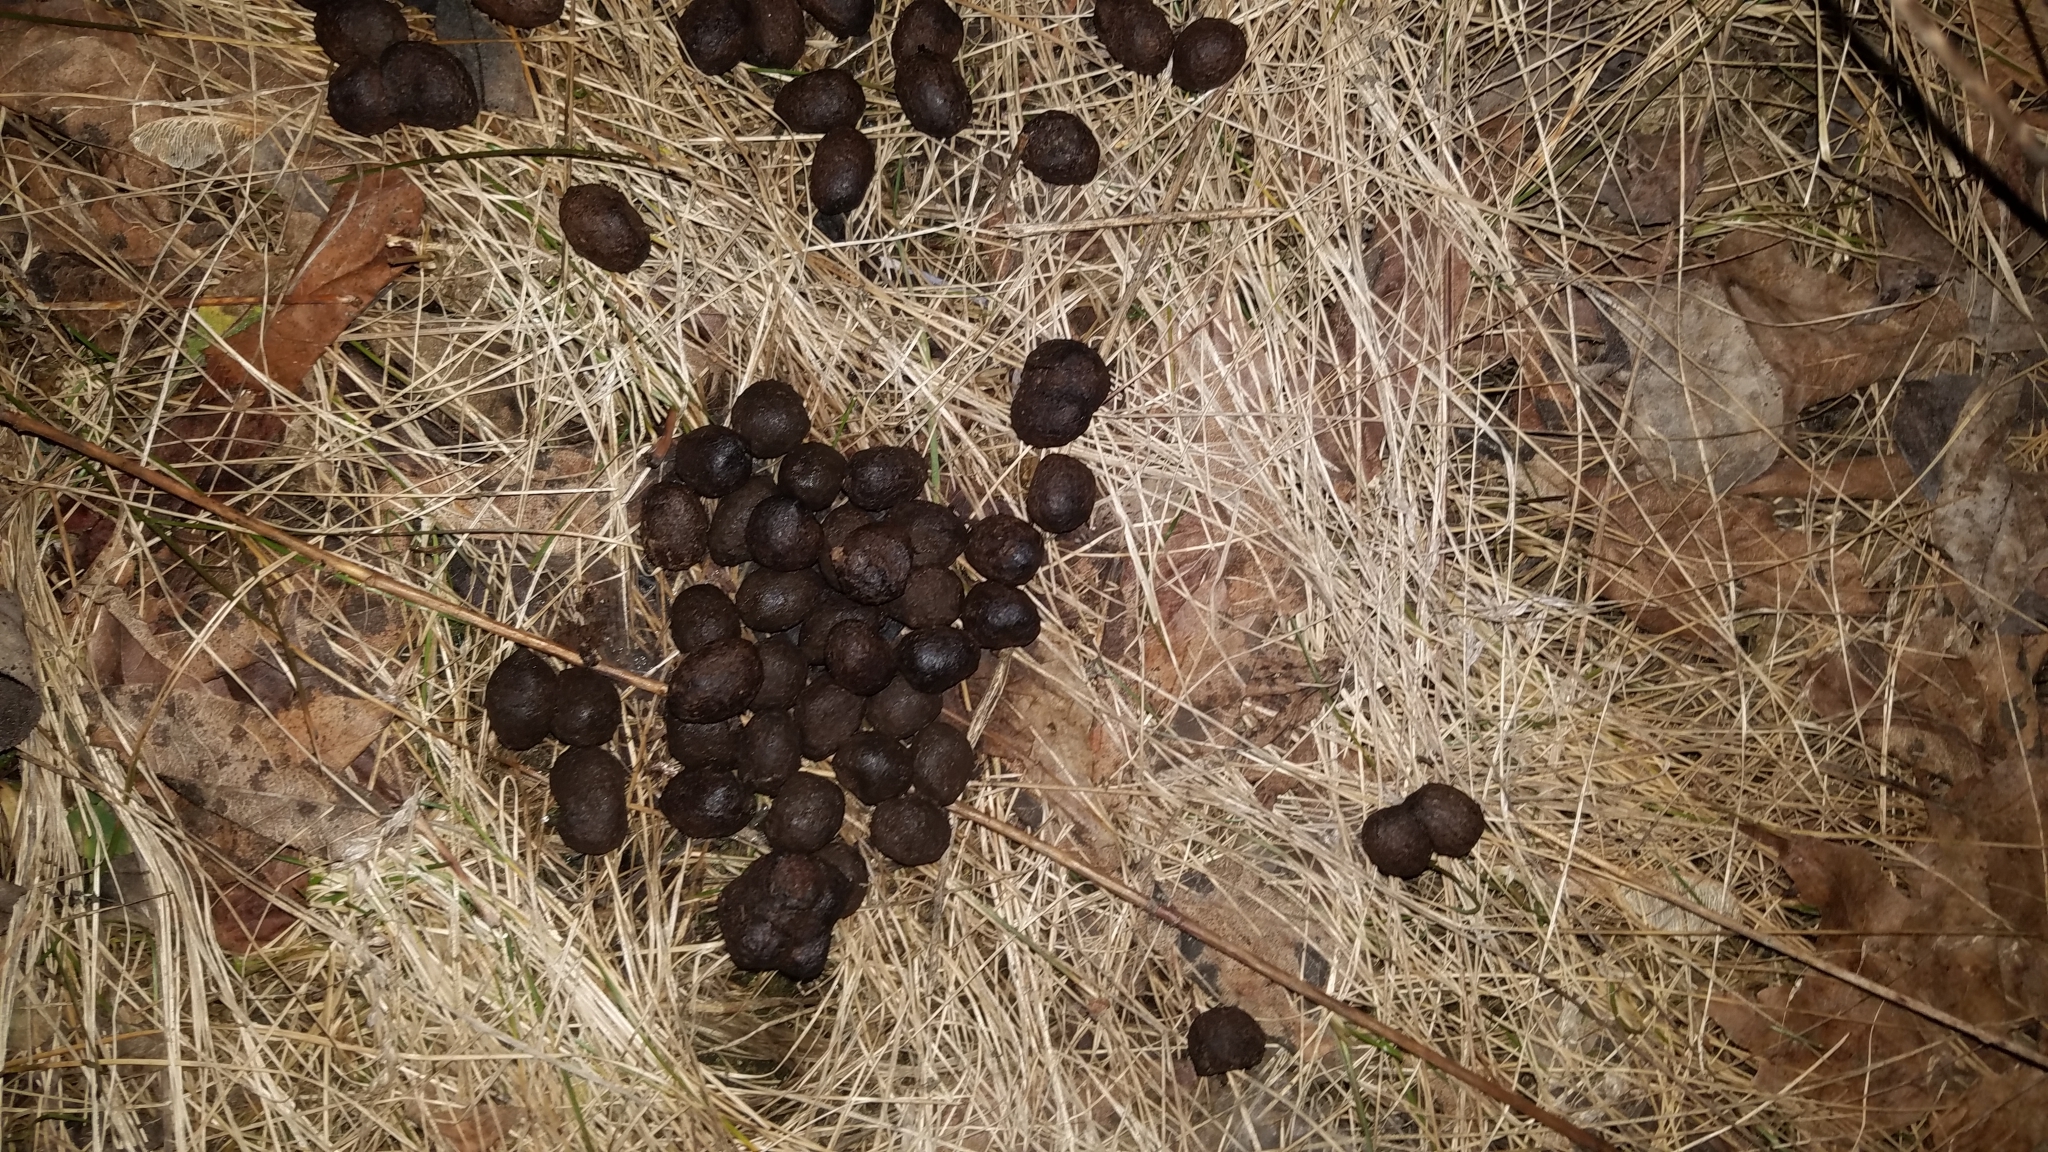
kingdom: Animalia
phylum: Chordata
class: Mammalia
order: Artiodactyla
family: Cervidae
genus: Odocoileus
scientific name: Odocoileus virginianus
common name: White-tailed deer
